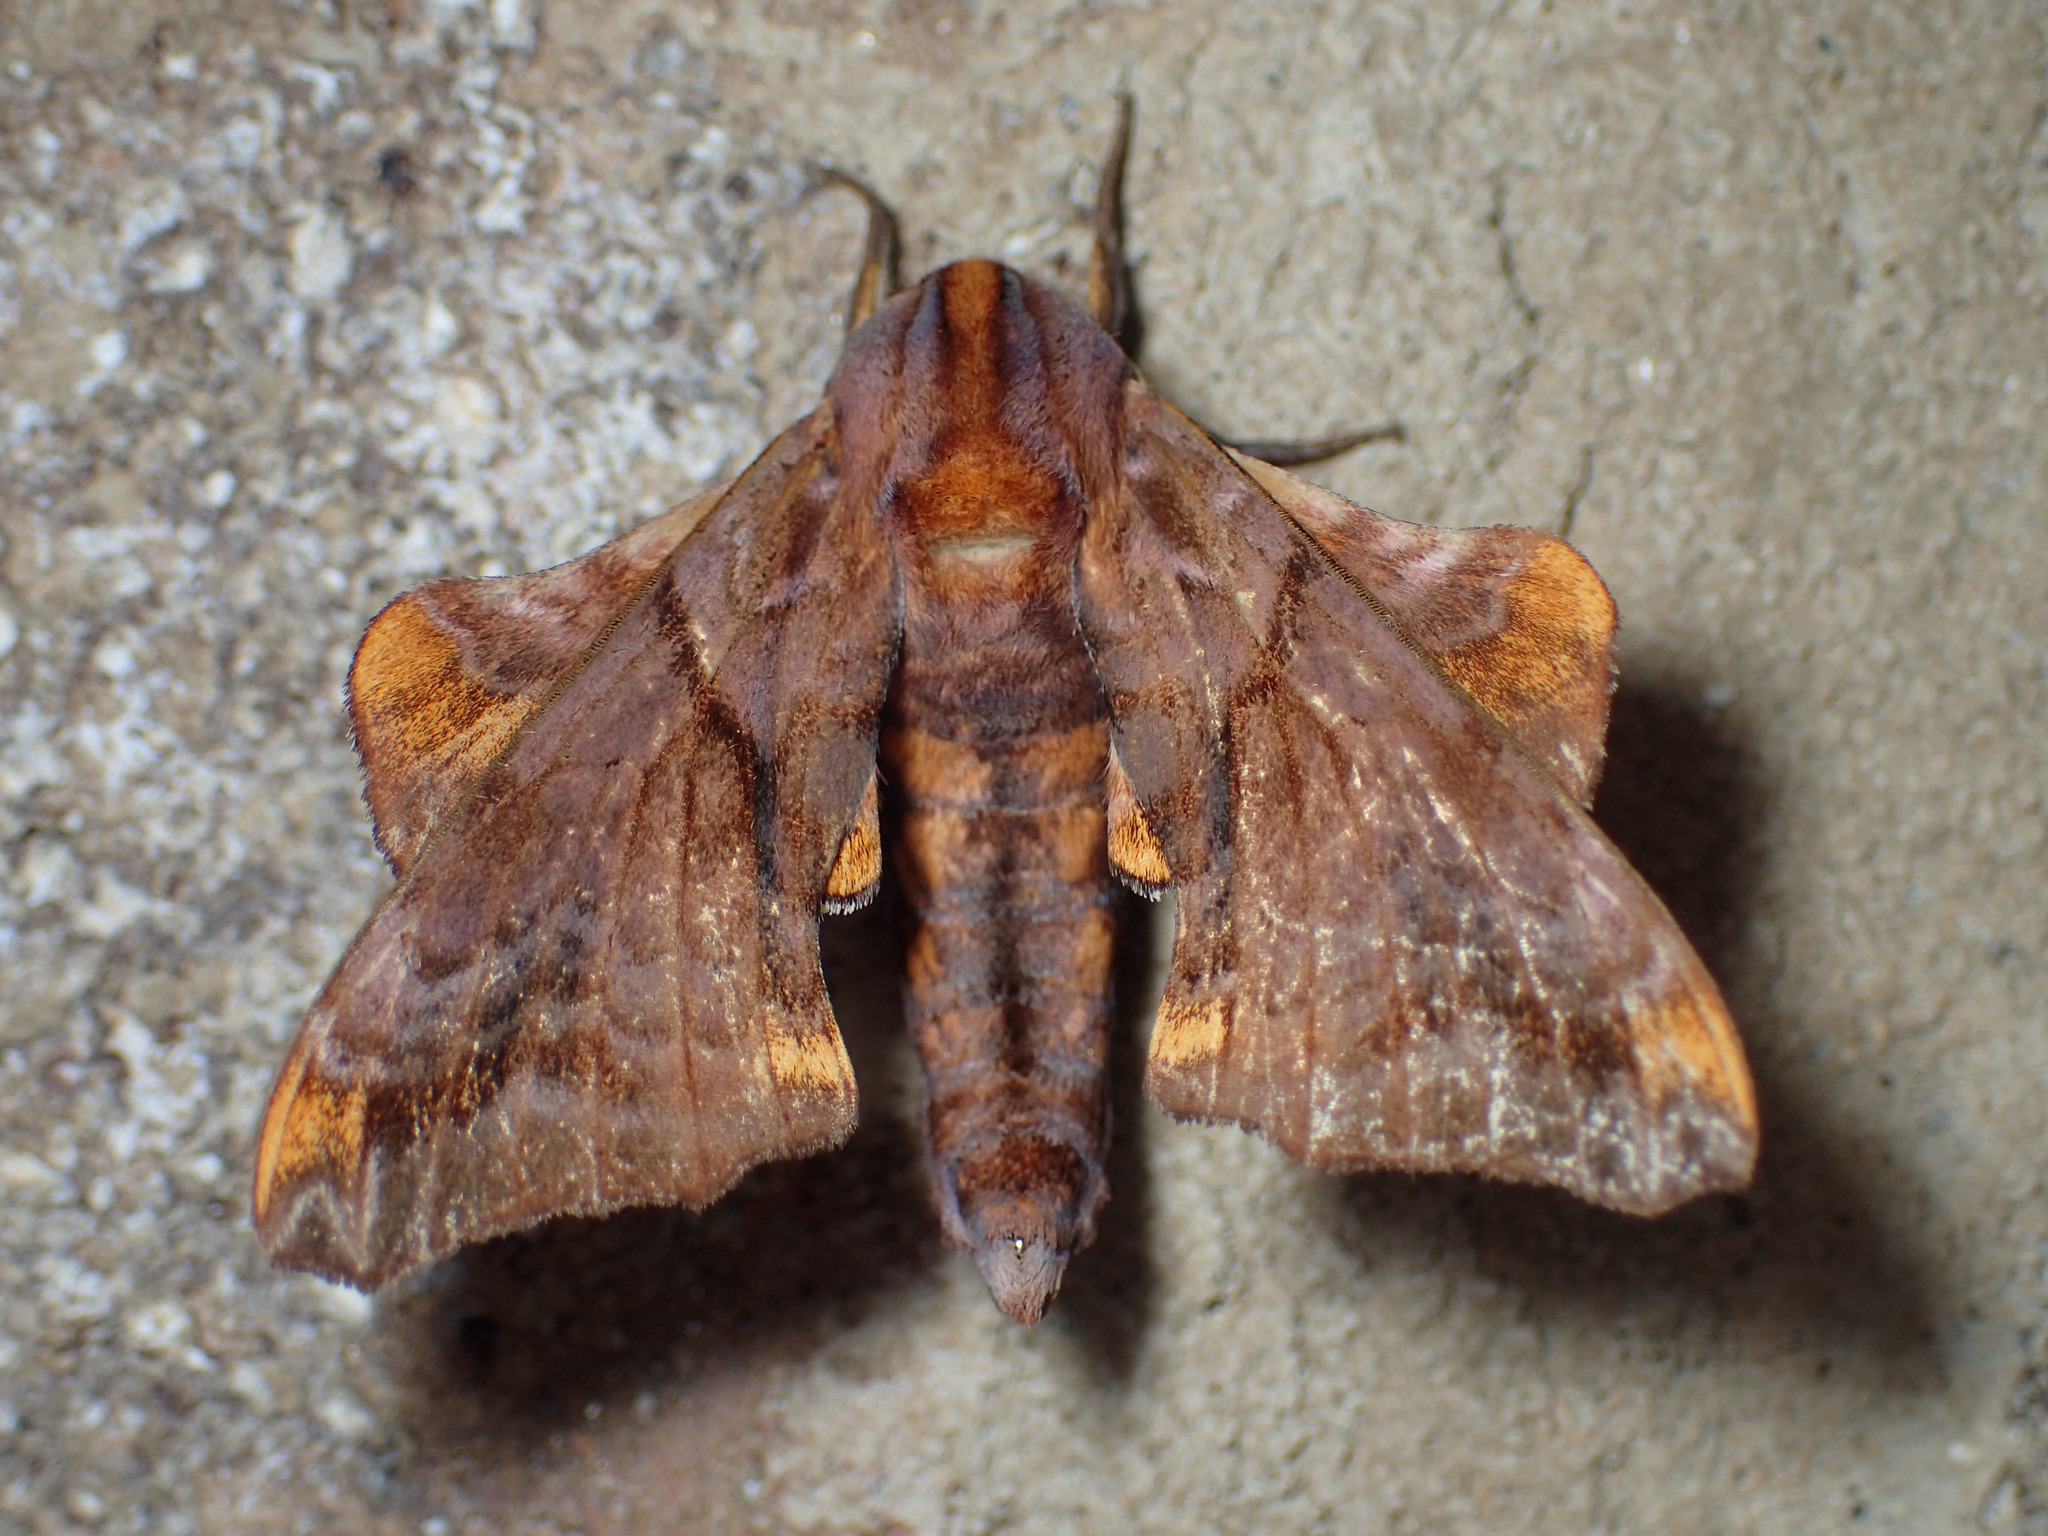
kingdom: Animalia
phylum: Arthropoda
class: Insecta
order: Lepidoptera
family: Sphingidae
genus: Paonias
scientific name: Paonias myops
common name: Small-eyed sphinx
